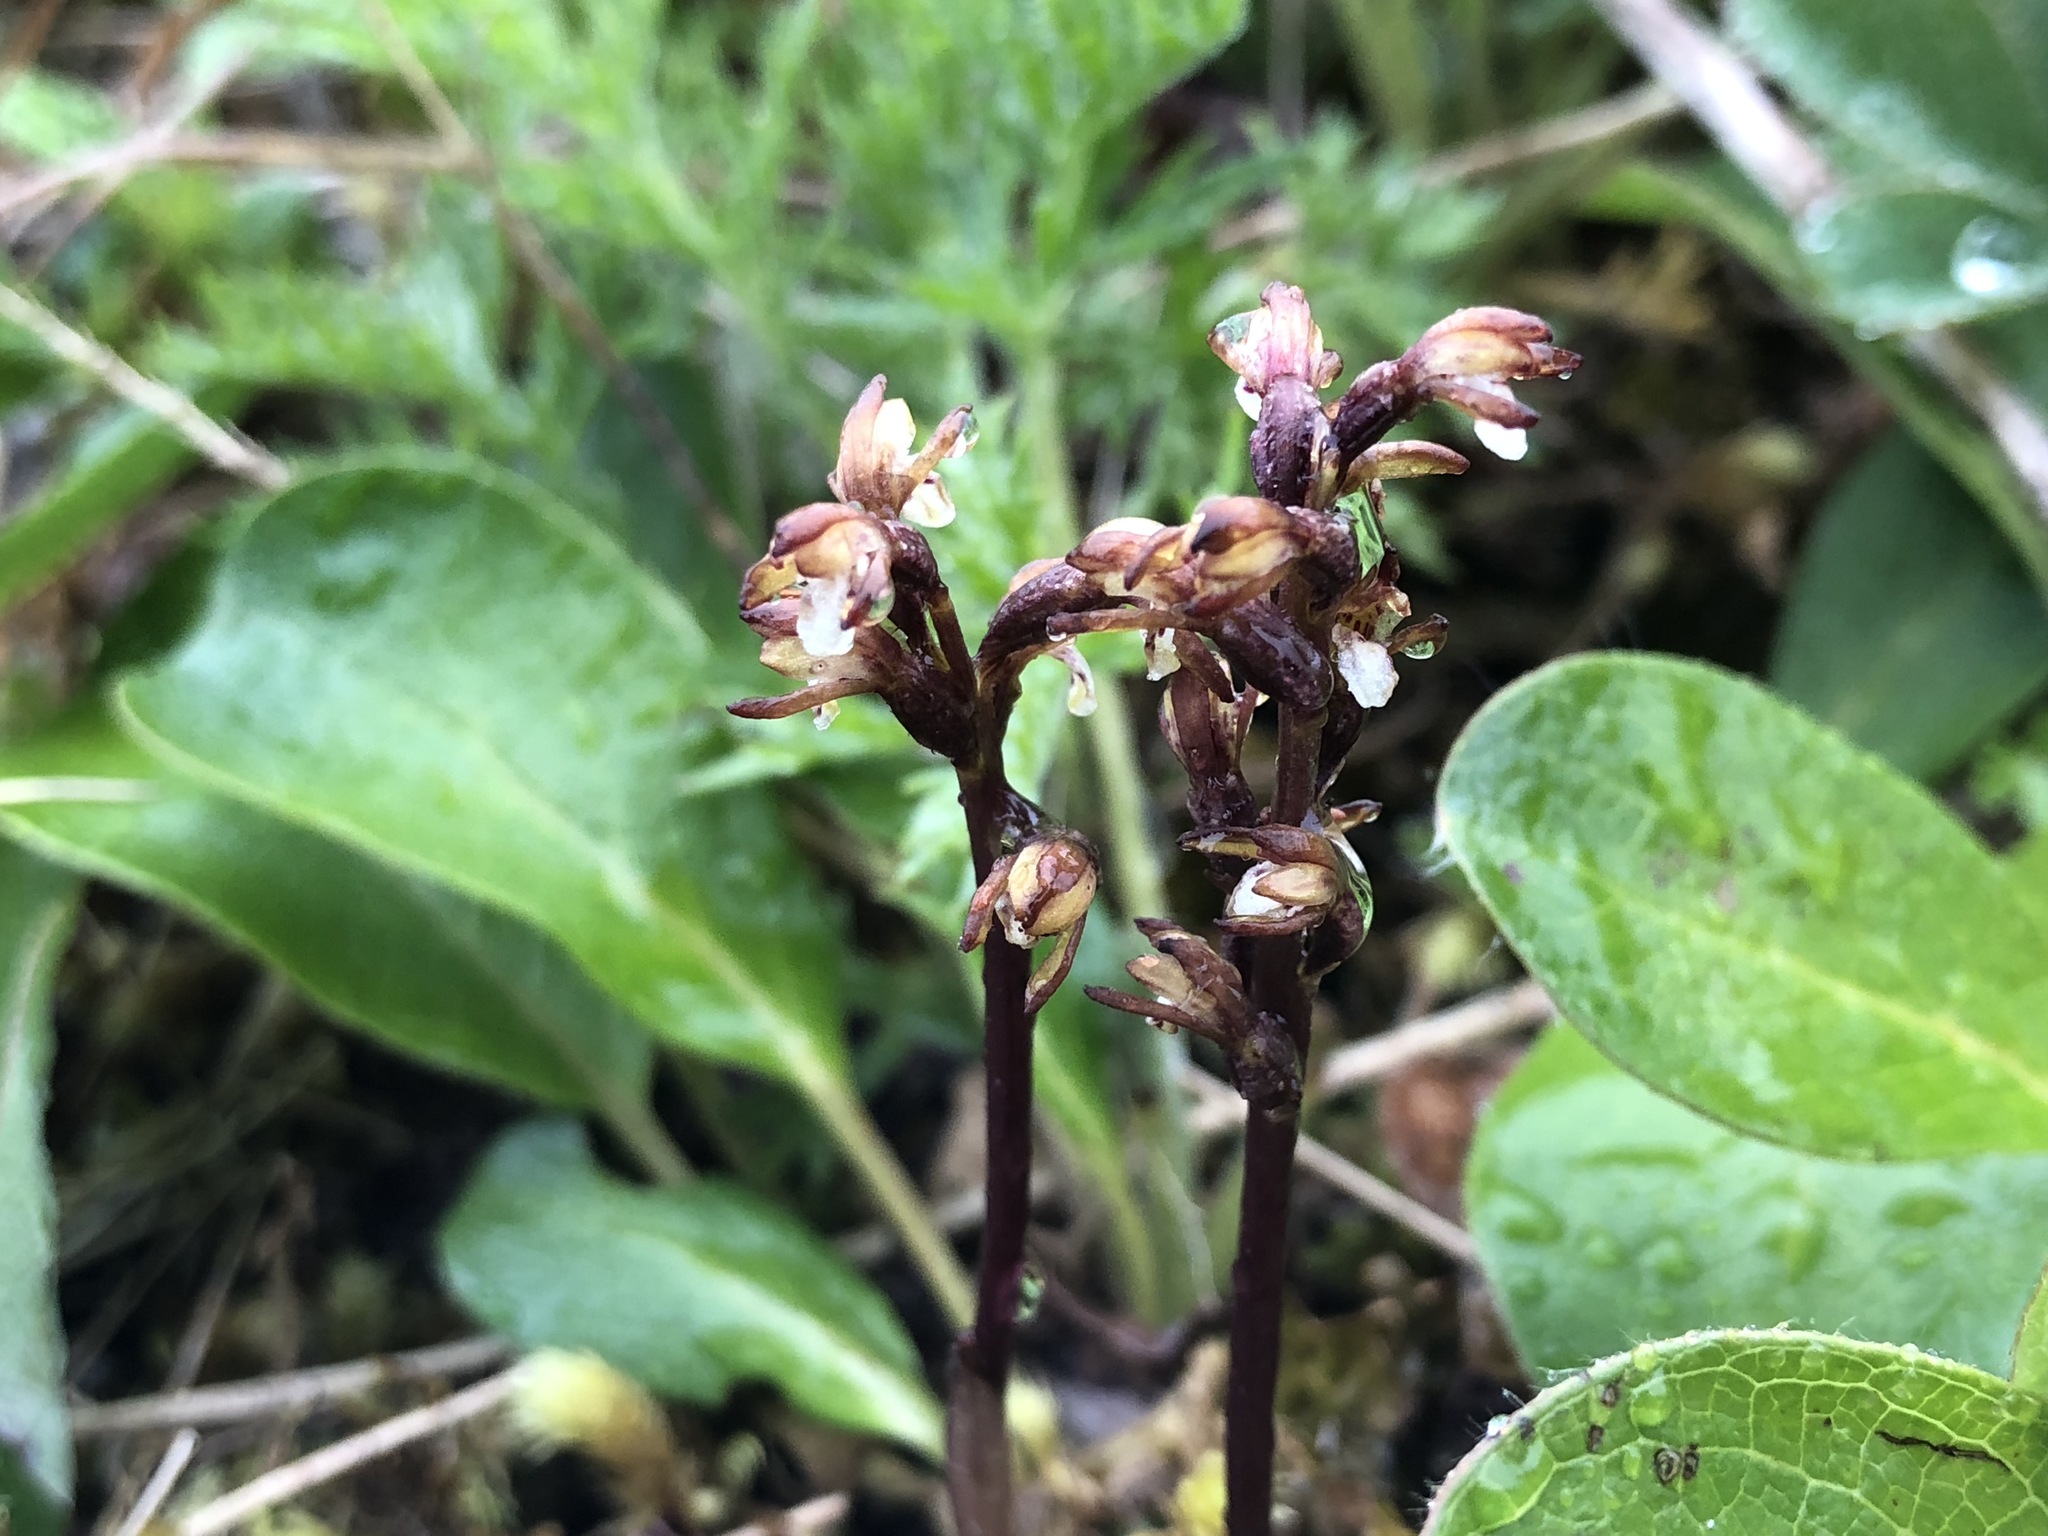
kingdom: Plantae
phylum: Tracheophyta
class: Liliopsida
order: Asparagales
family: Orchidaceae
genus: Corallorhiza
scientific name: Corallorhiza trifida
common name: Yellow coralroot
